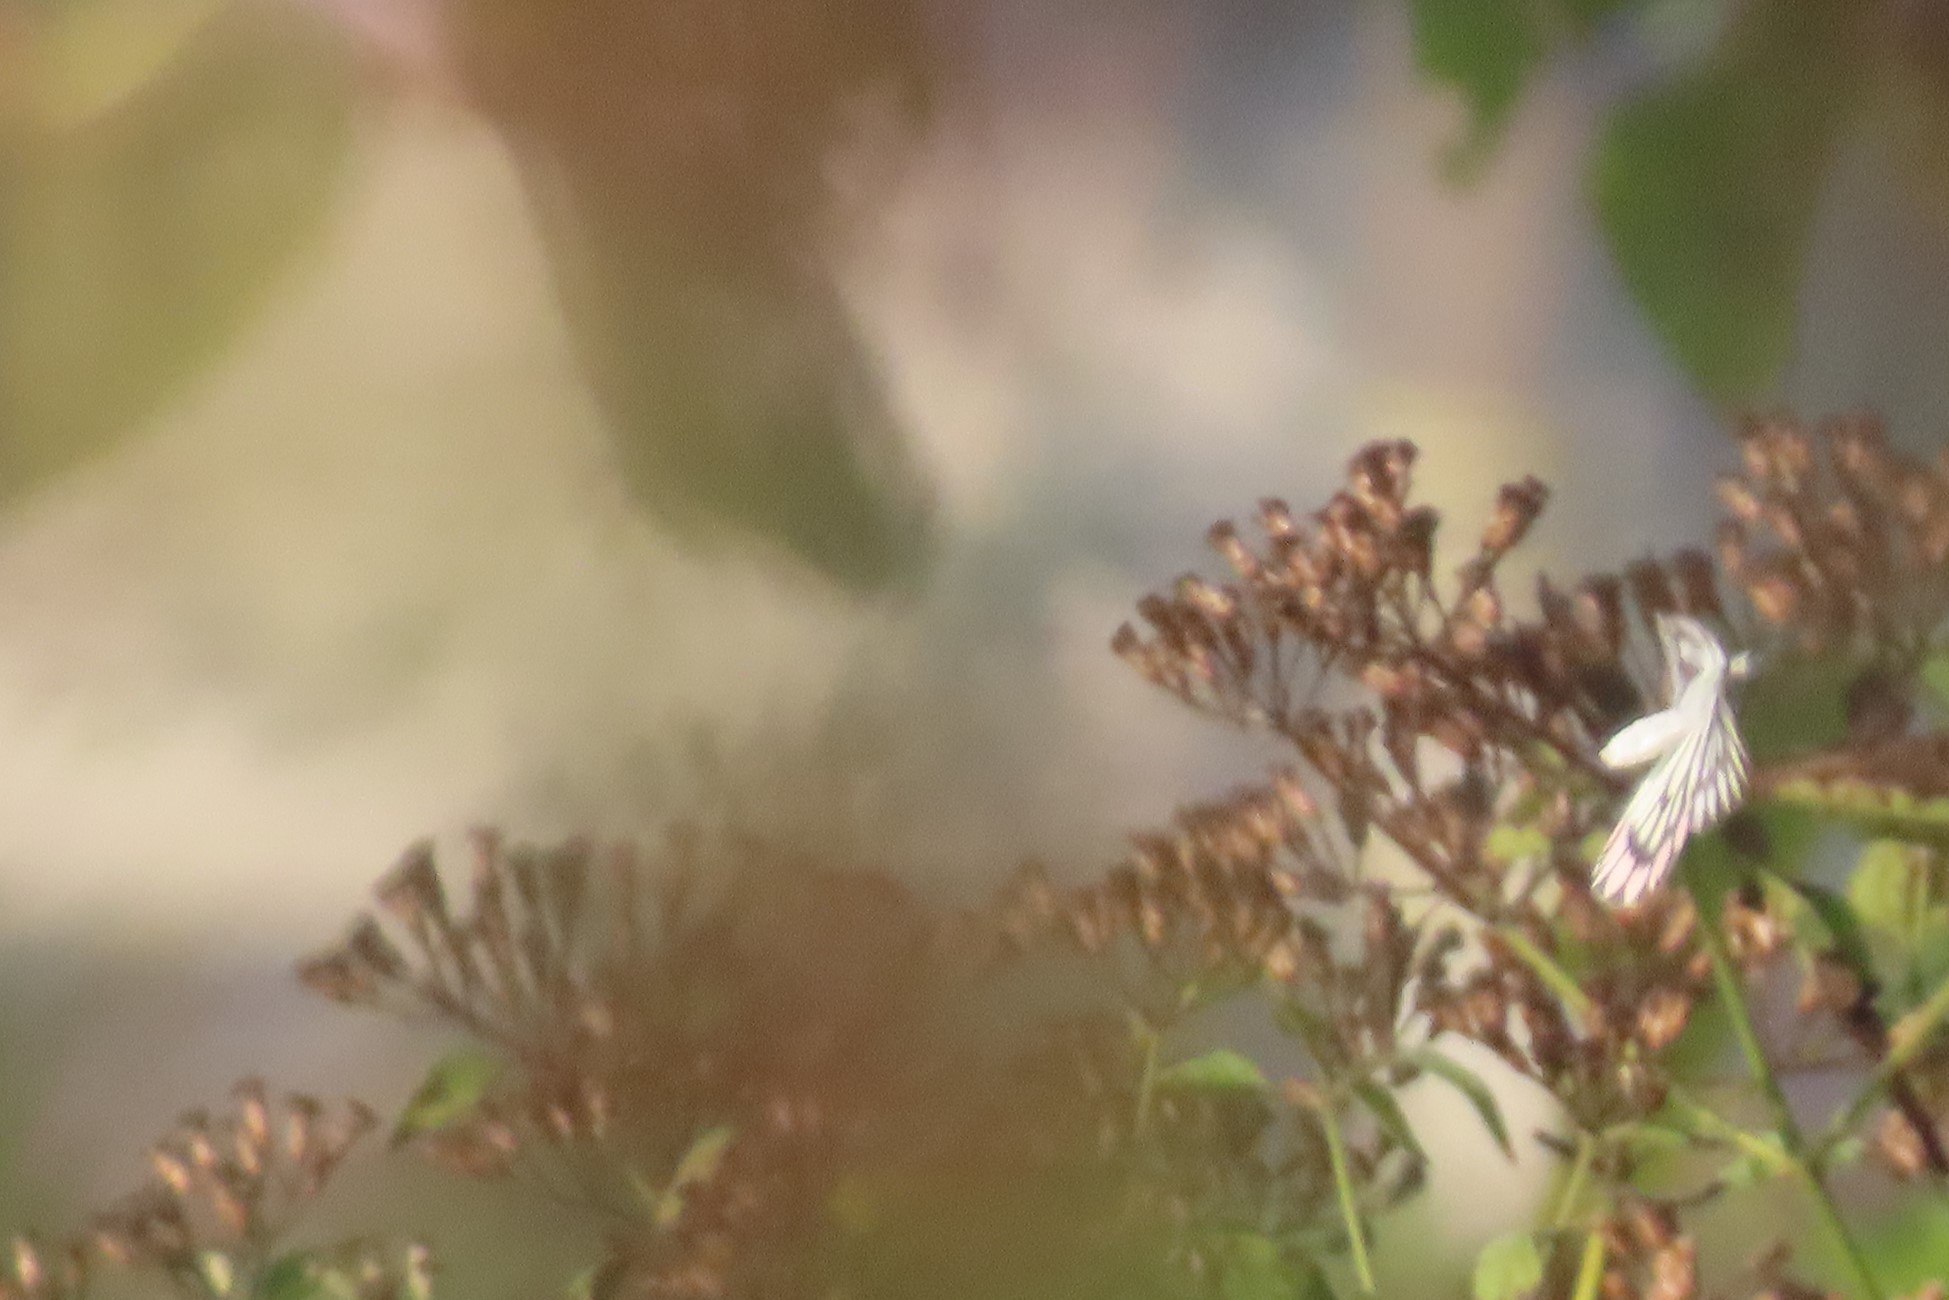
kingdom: Animalia
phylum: Arthropoda
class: Insecta
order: Lepidoptera
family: Pieridae
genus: Delias
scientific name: Delias eucharis
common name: Common jezebel
